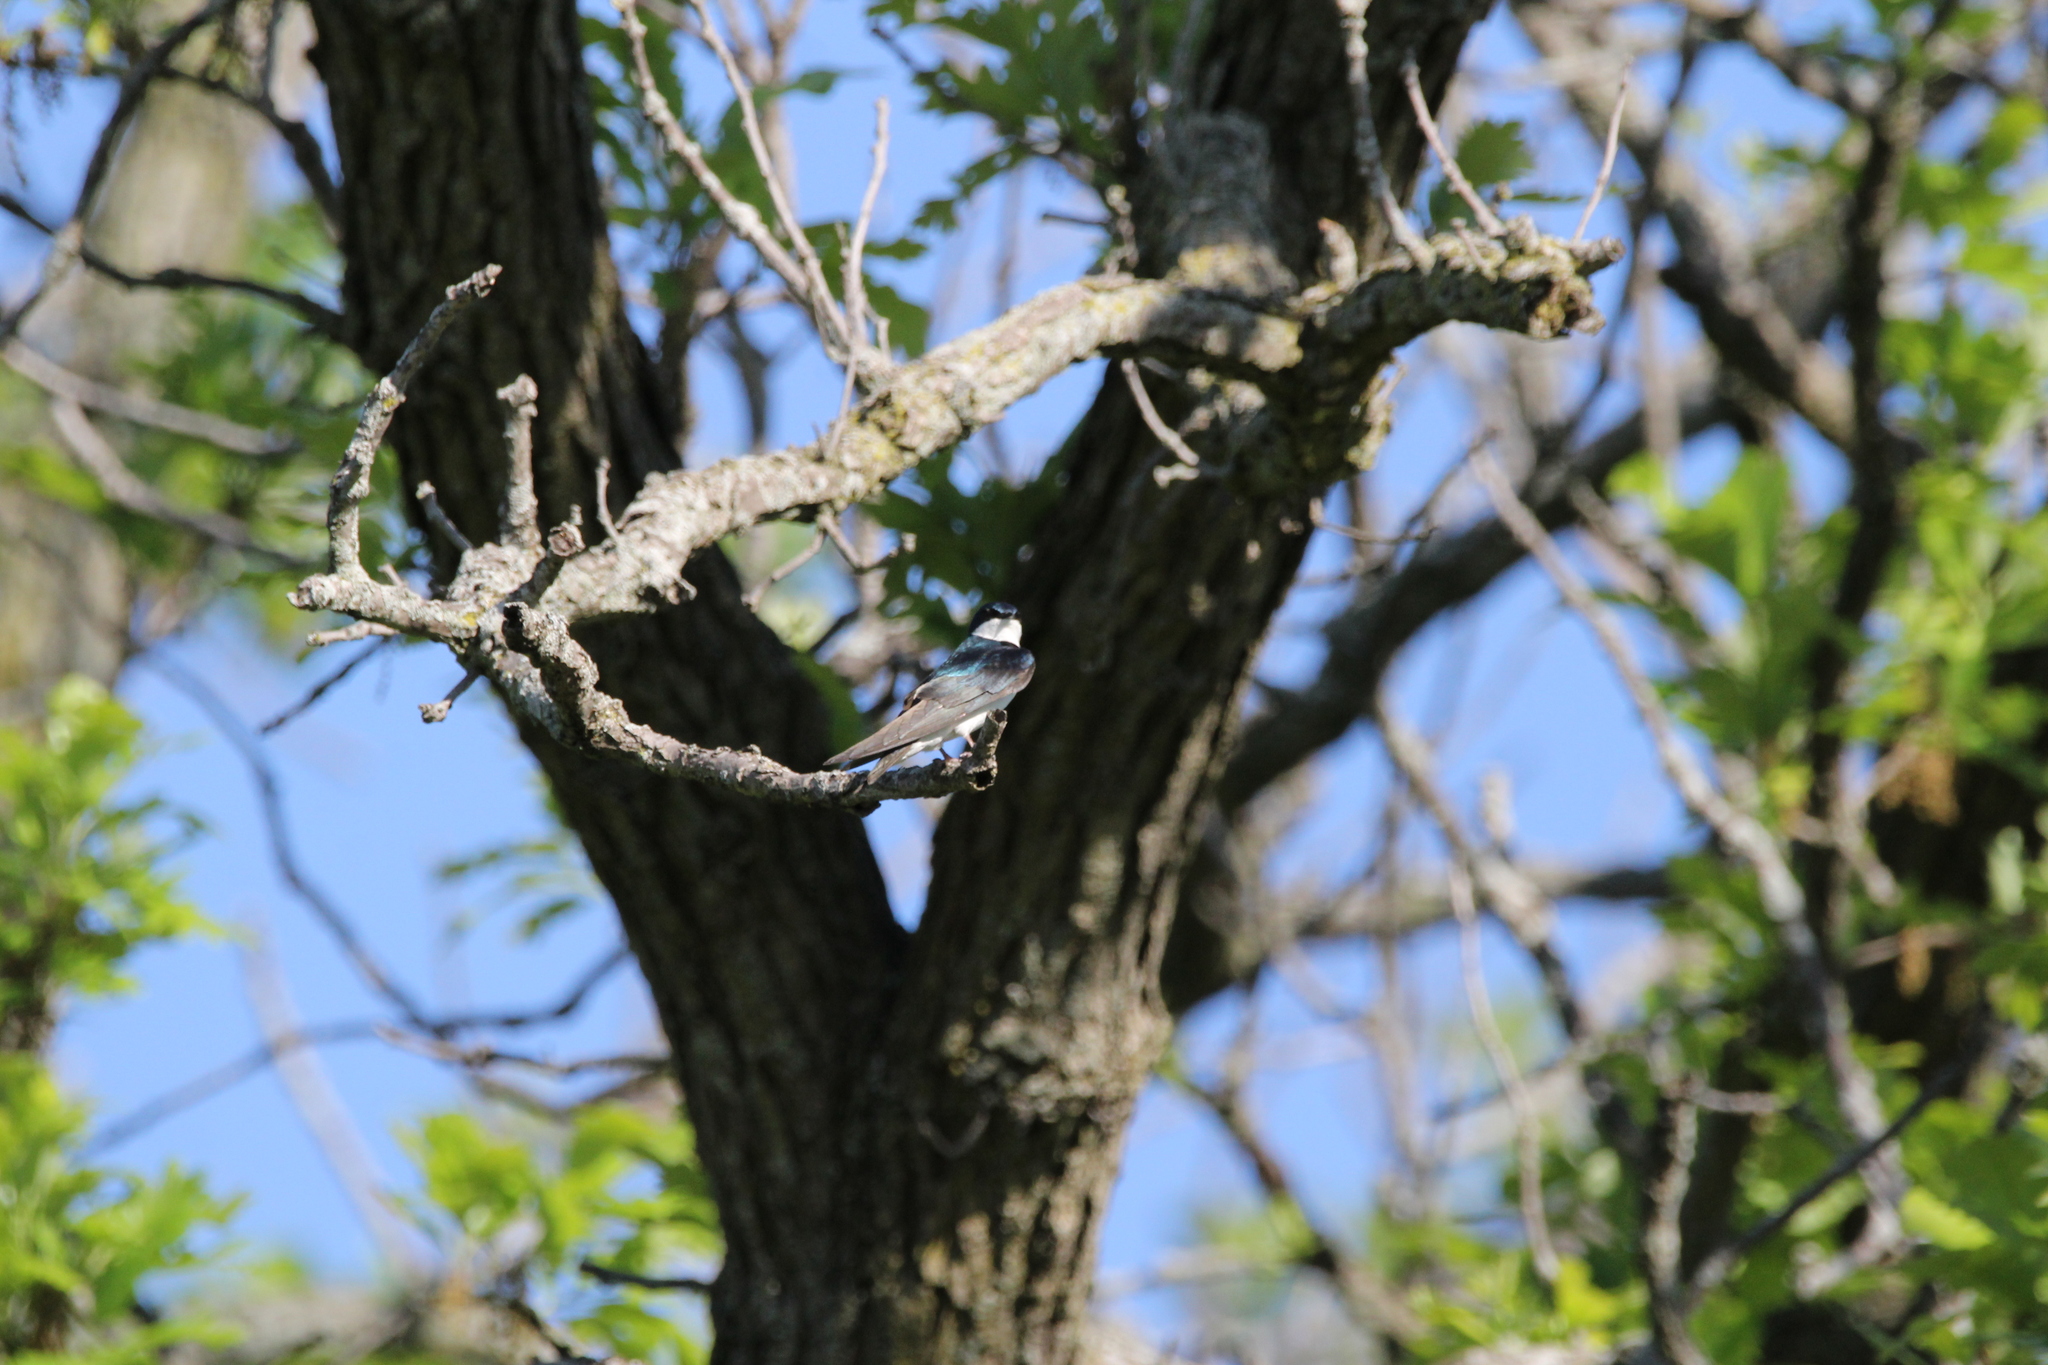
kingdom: Animalia
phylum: Chordata
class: Aves
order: Passeriformes
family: Hirundinidae
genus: Tachycineta
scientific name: Tachycineta bicolor
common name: Tree swallow
